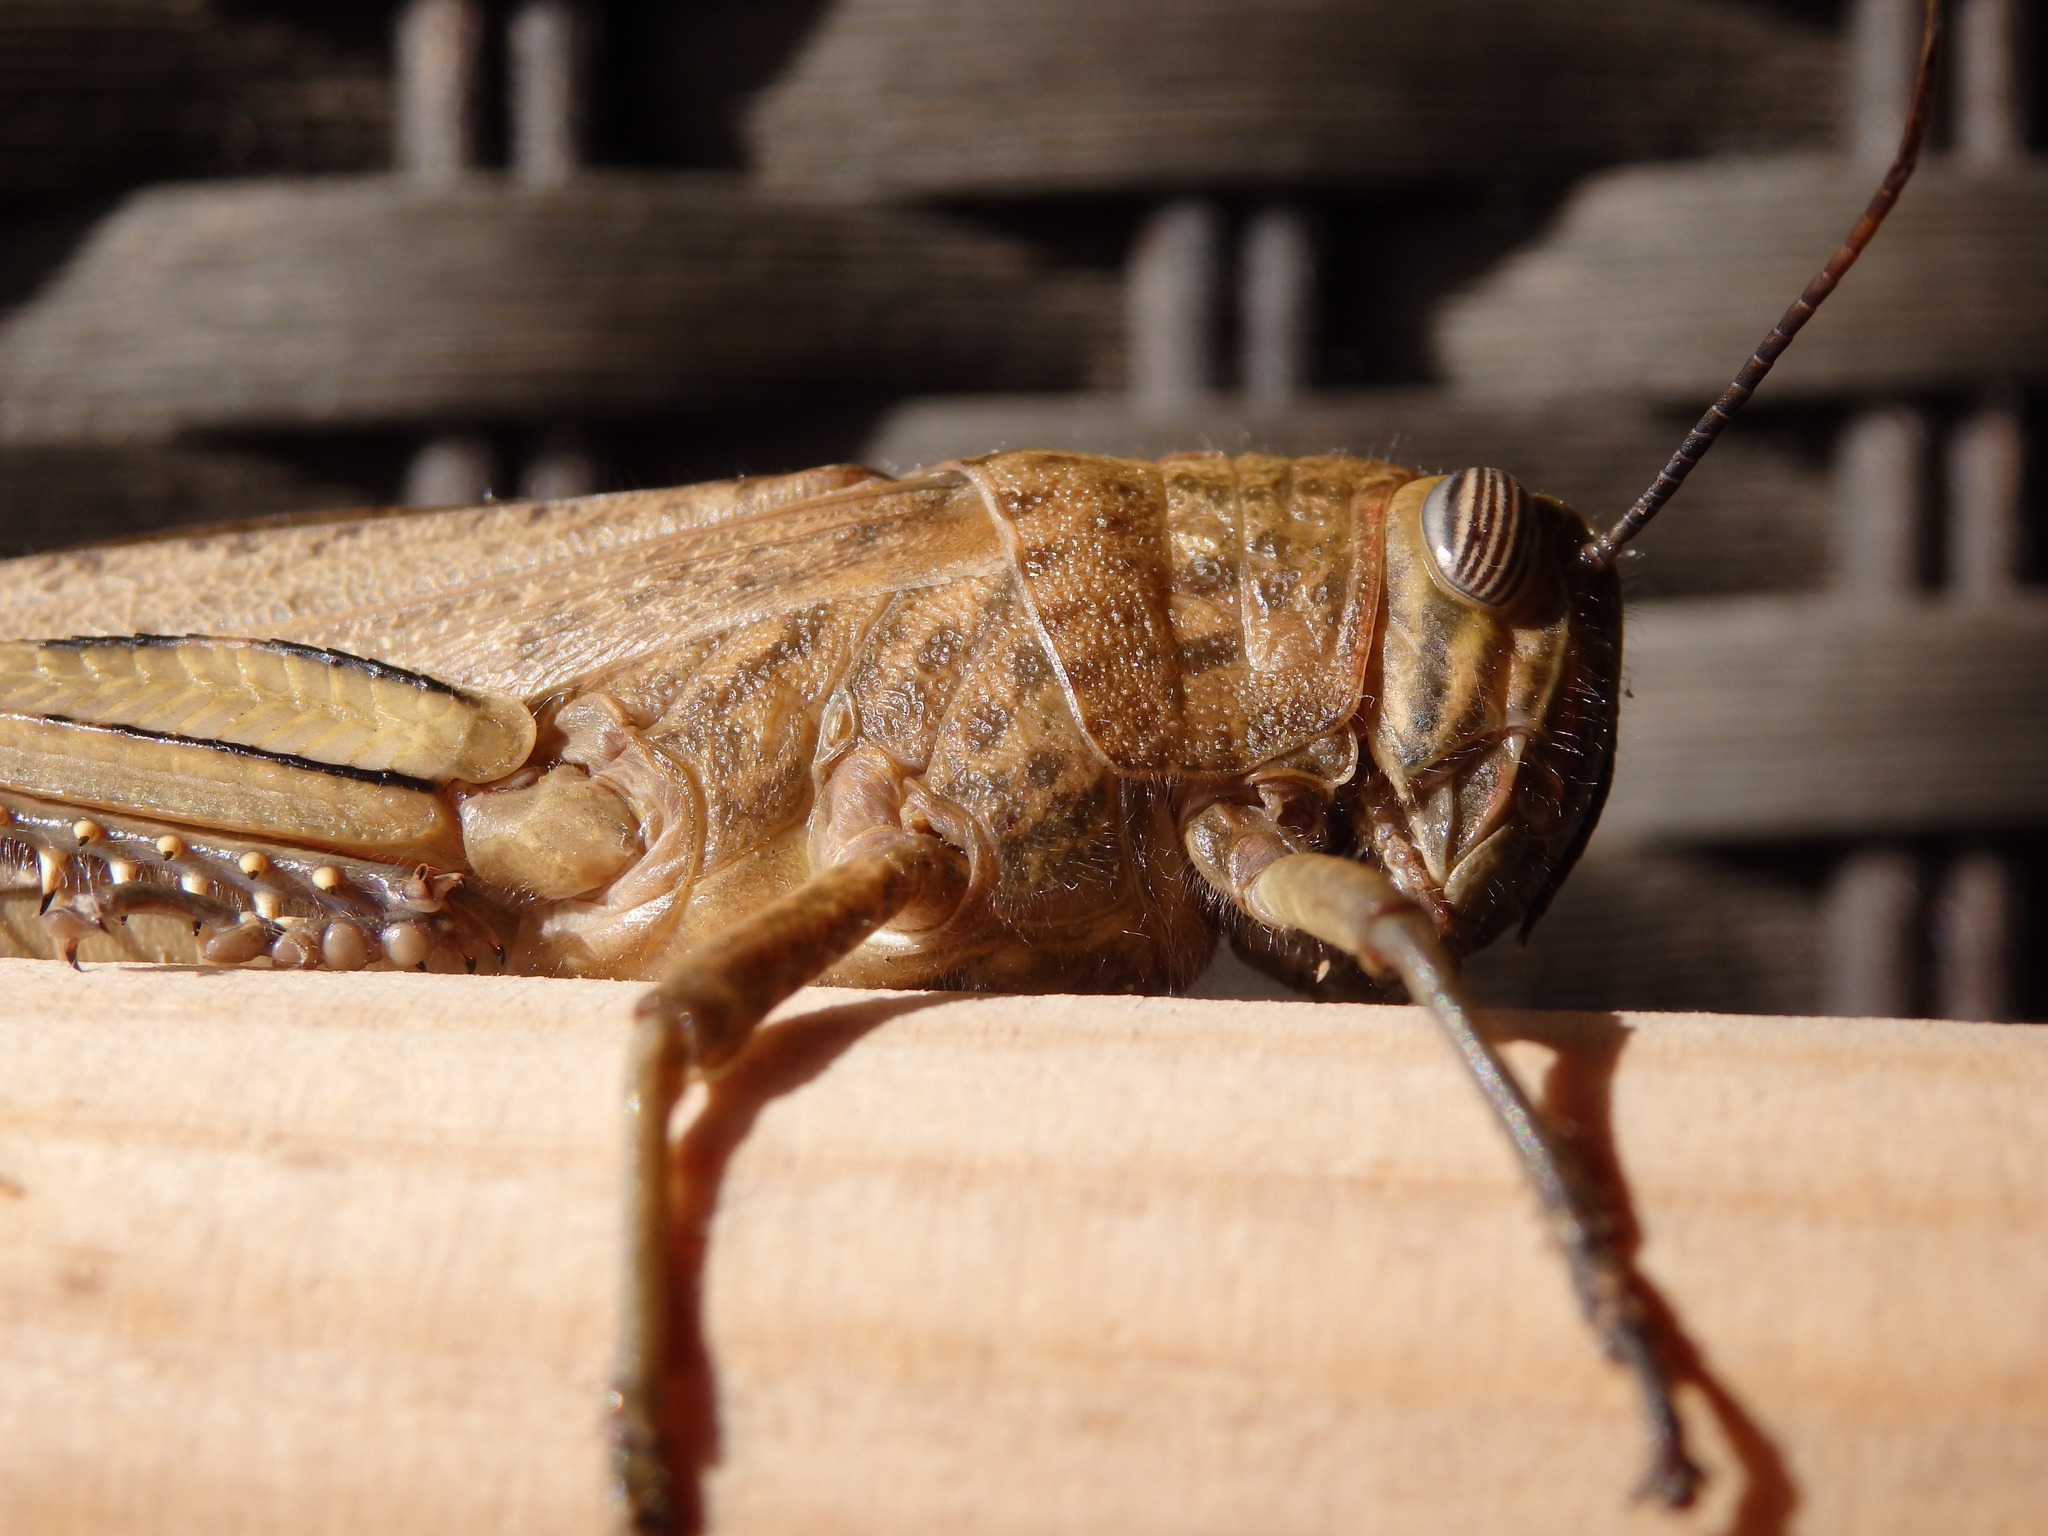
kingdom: Animalia
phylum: Arthropoda
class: Insecta
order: Orthoptera
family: Acrididae
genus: Anacridium
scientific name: Anacridium aegyptium
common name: Egyptian grasshopper
